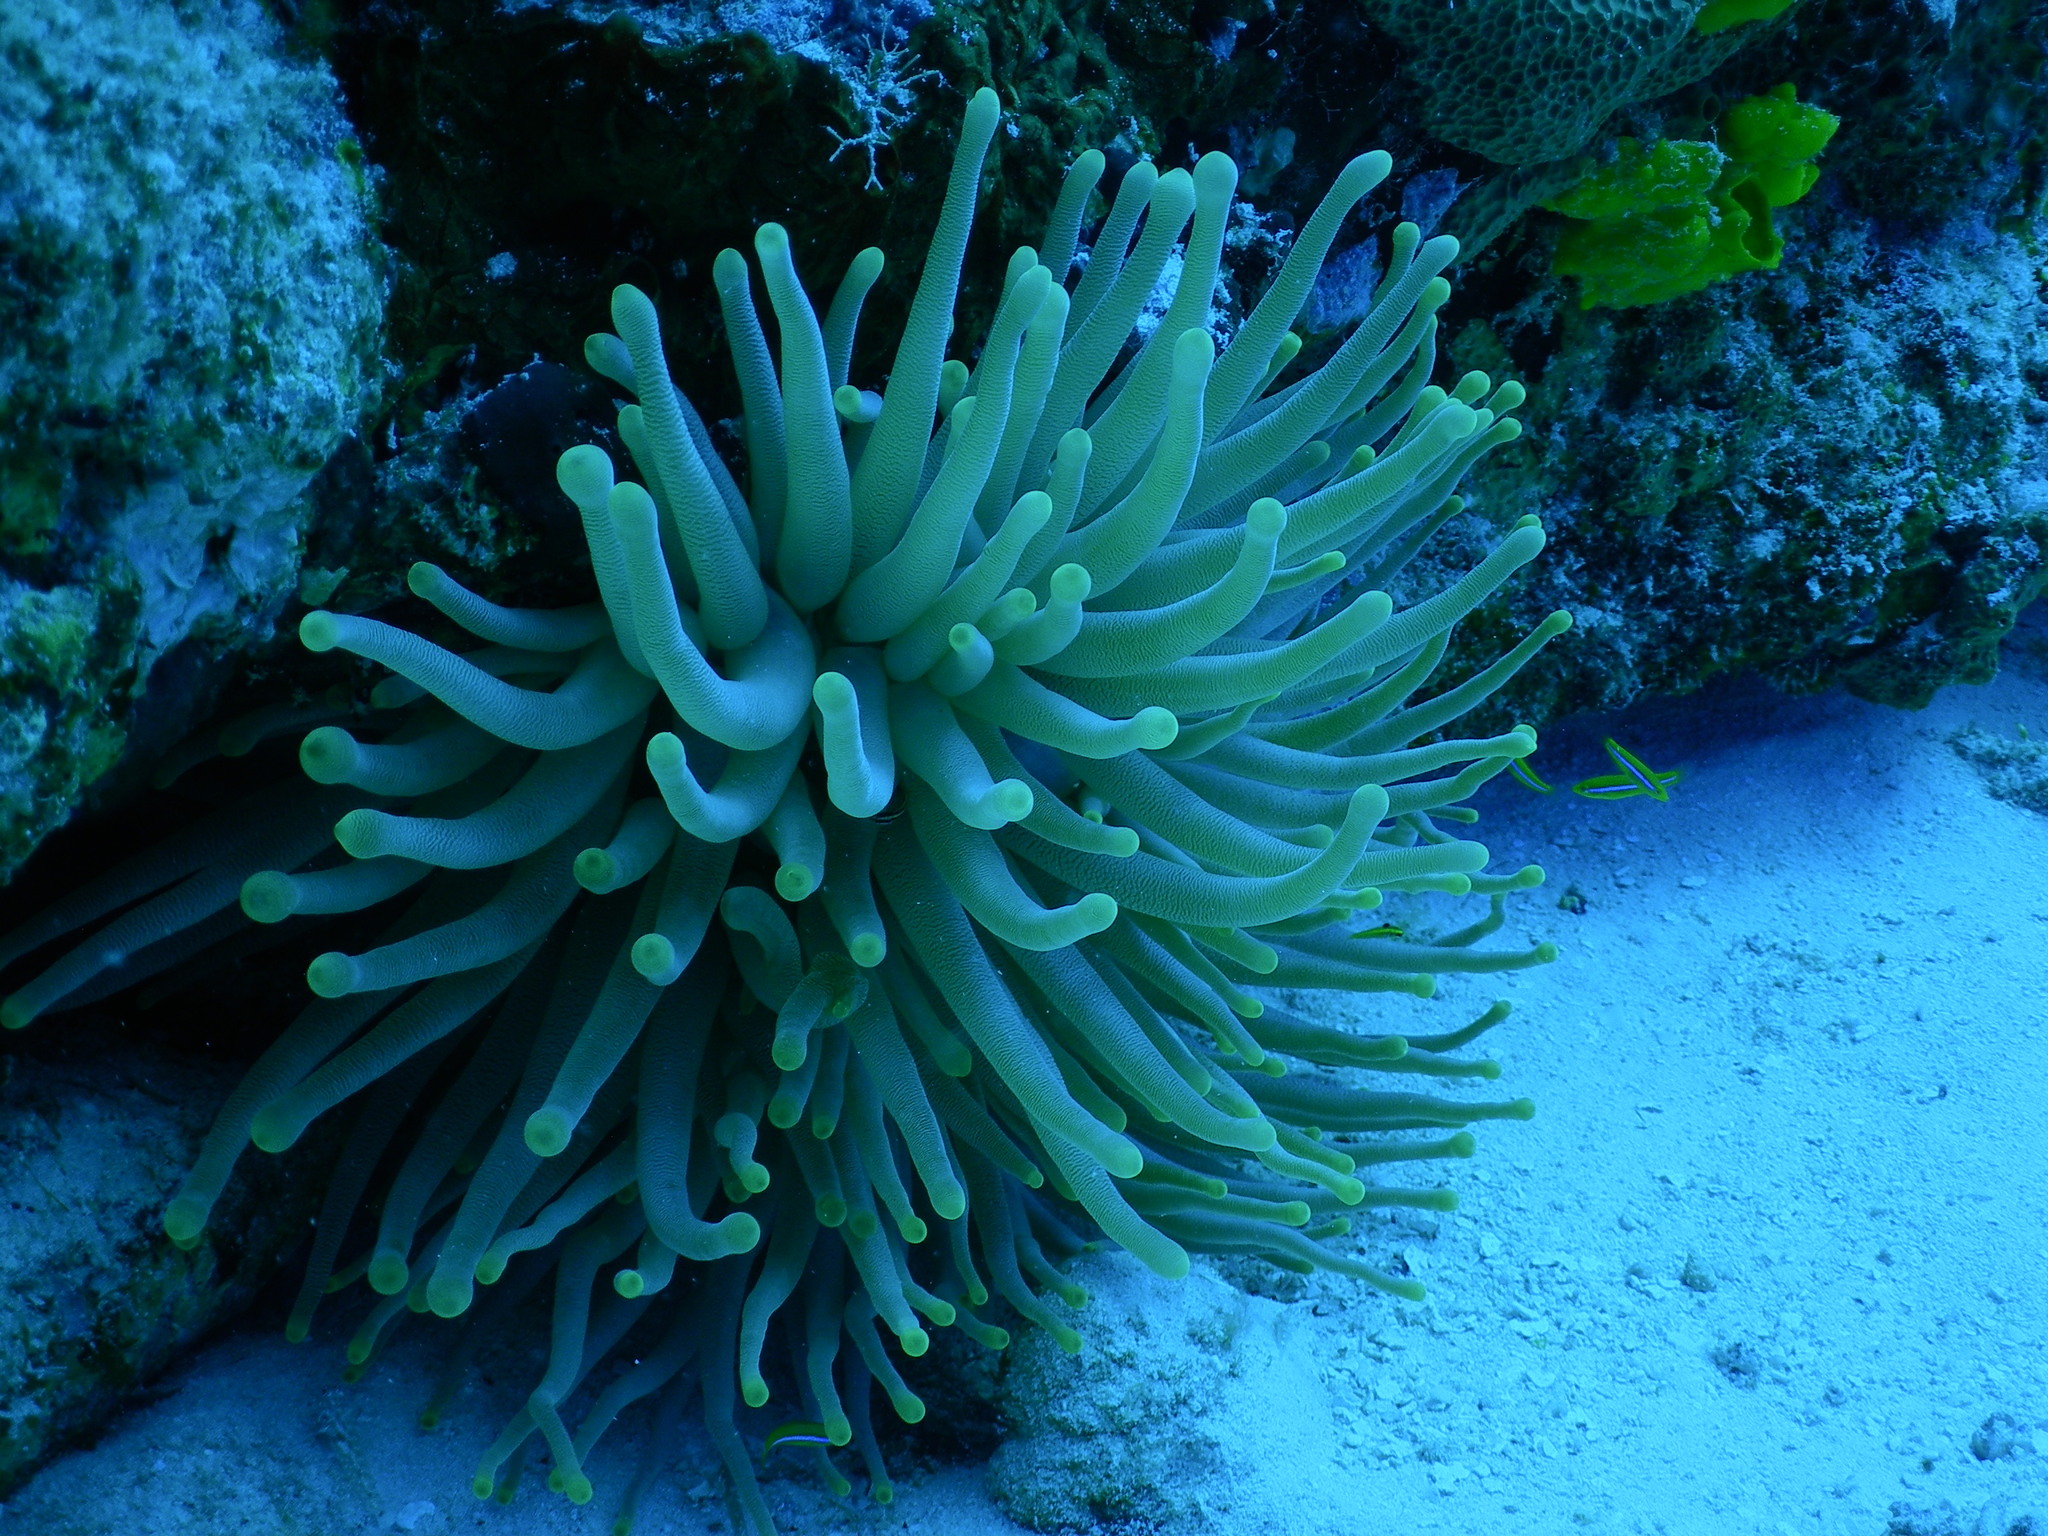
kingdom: Animalia
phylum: Cnidaria
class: Anthozoa
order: Actiniaria
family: Actiniidae
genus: Condylactis
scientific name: Condylactis gigantea
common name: Giant caribbean anemone
